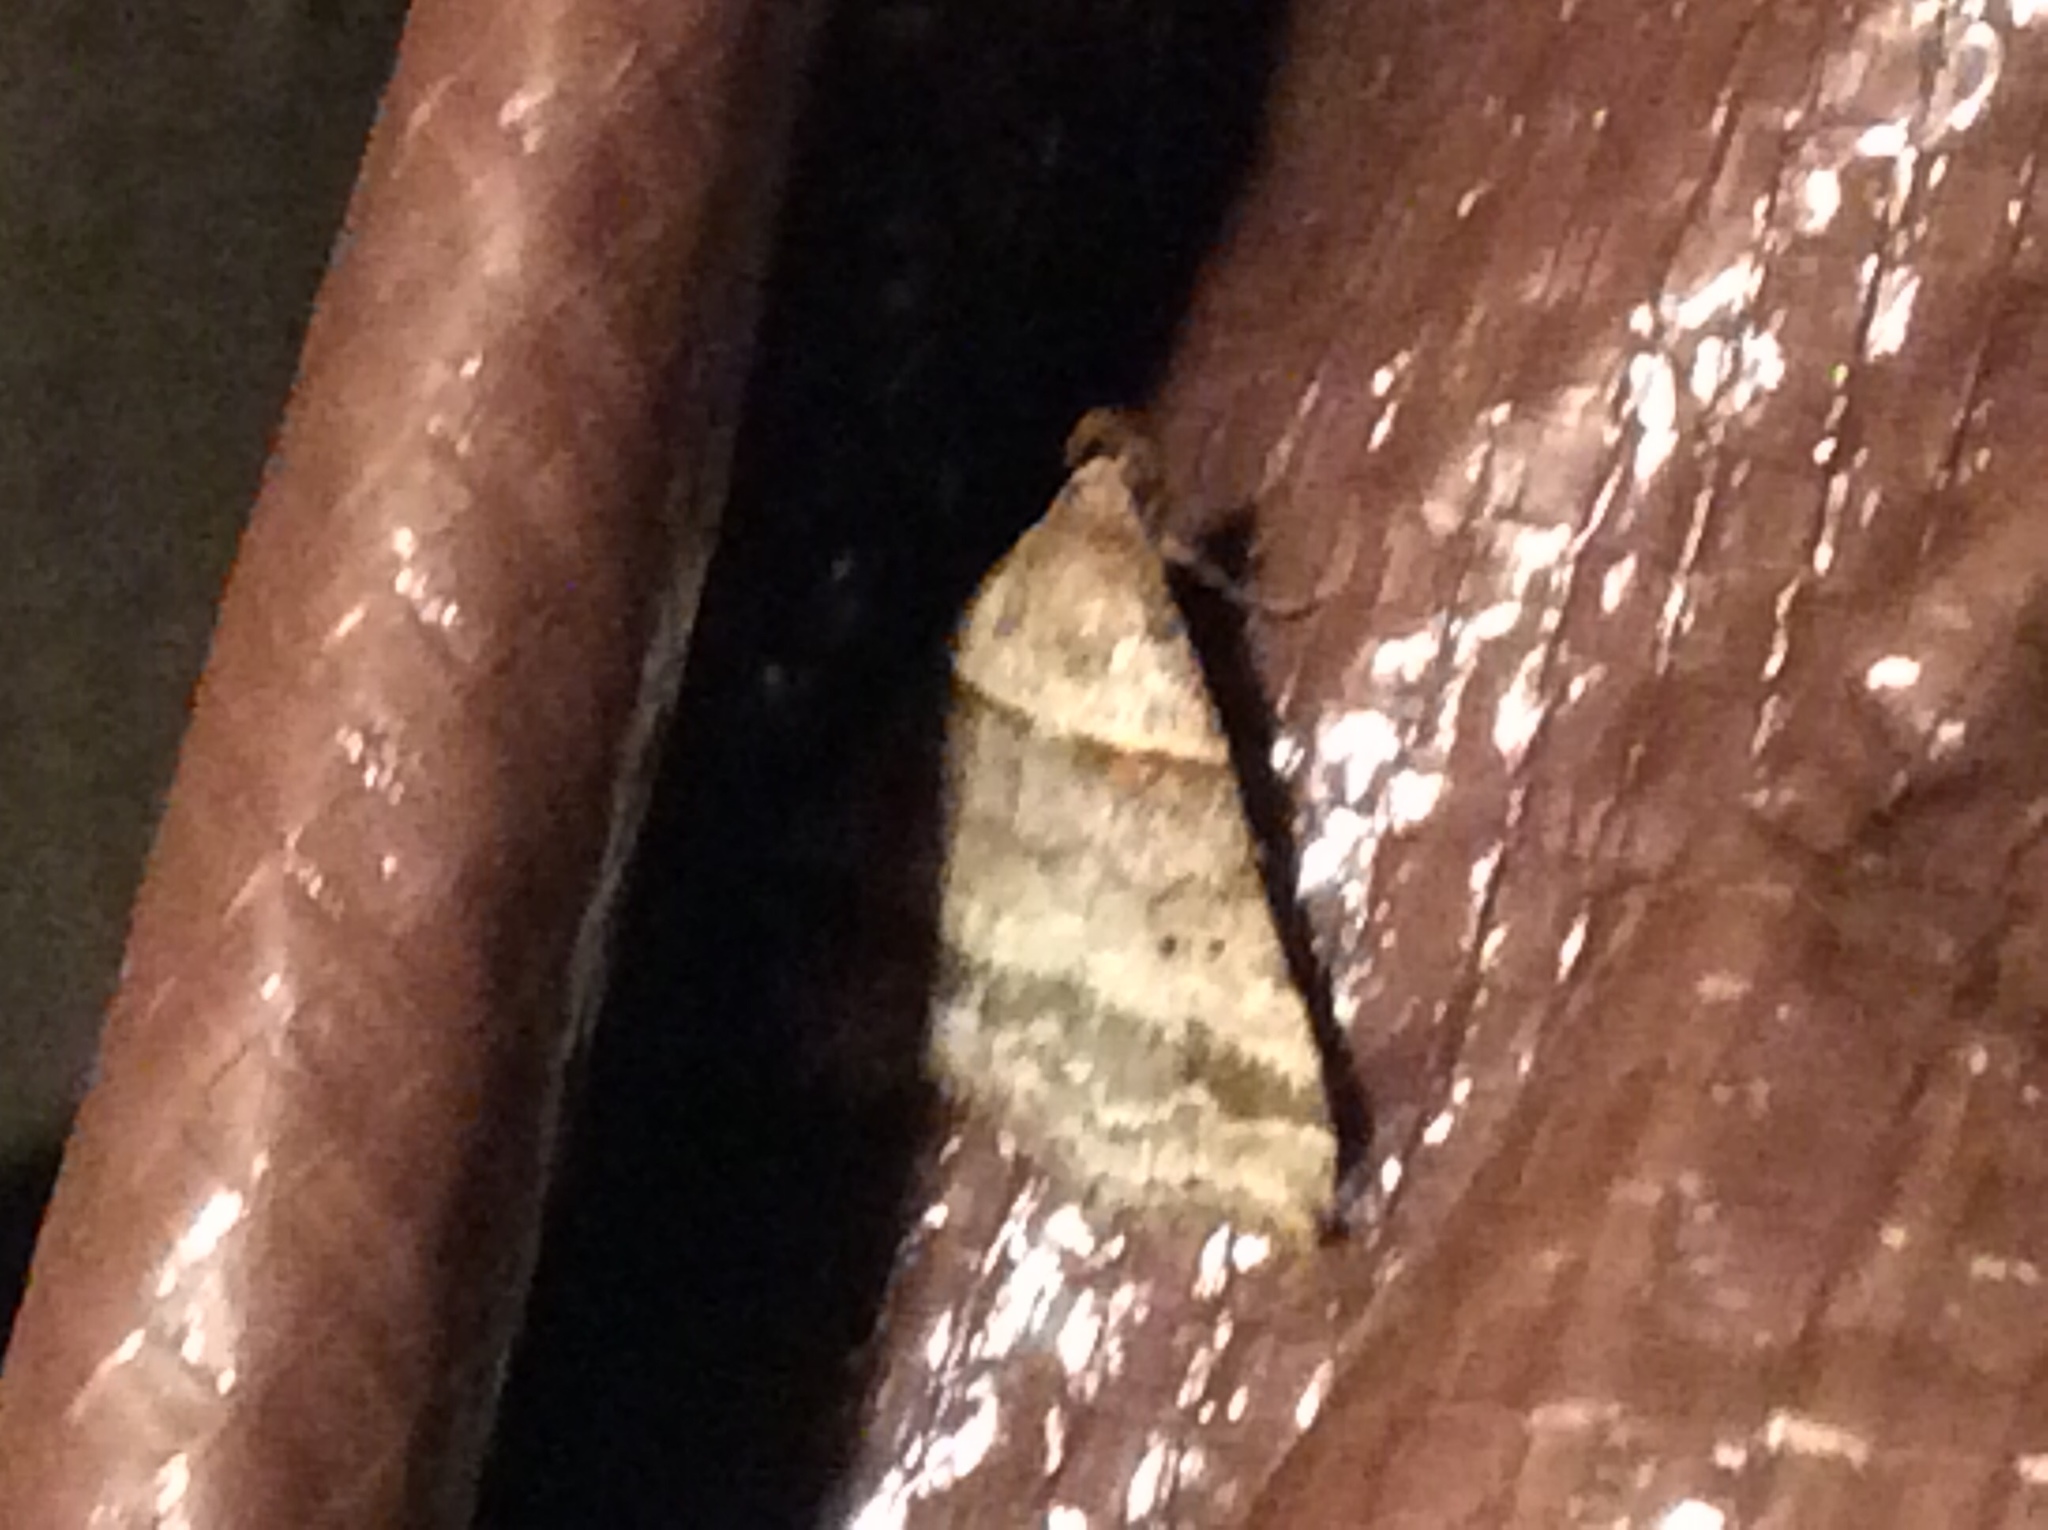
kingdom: Animalia
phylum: Arthropoda
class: Insecta
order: Lepidoptera
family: Erebidae
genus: Phaeolita
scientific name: Phaeolita pyramusalis
